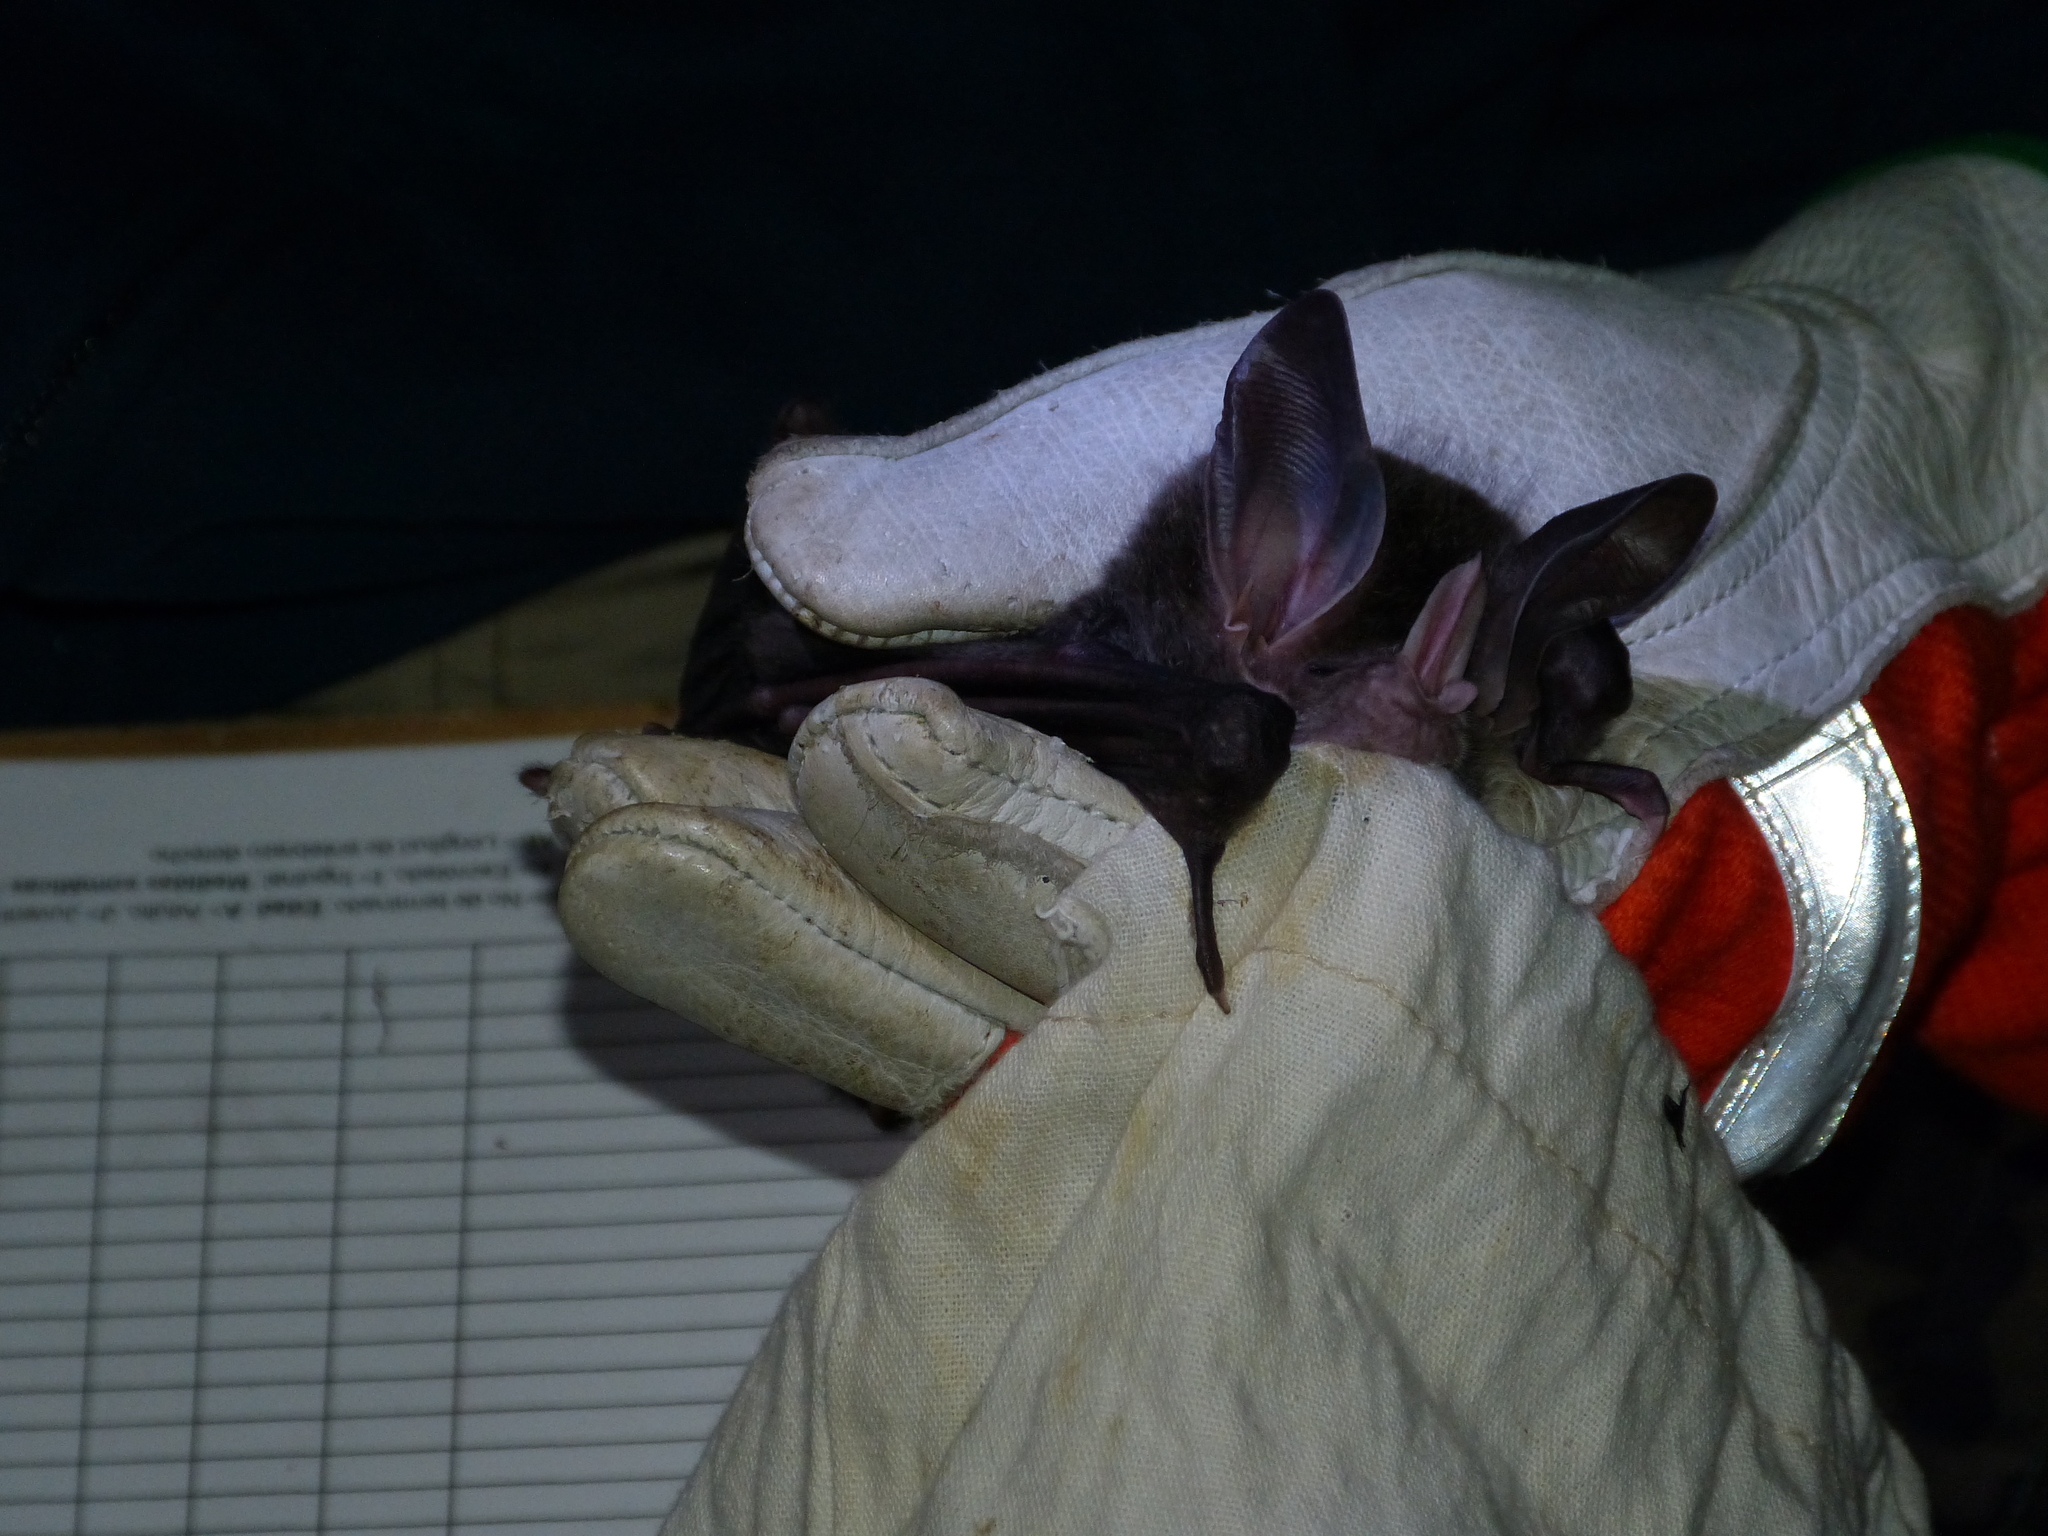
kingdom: Animalia
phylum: Chordata
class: Mammalia
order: Chiroptera
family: Phyllostomidae
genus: Chrotopterus
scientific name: Chrotopterus auritus
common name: Woolly false vampire bat
